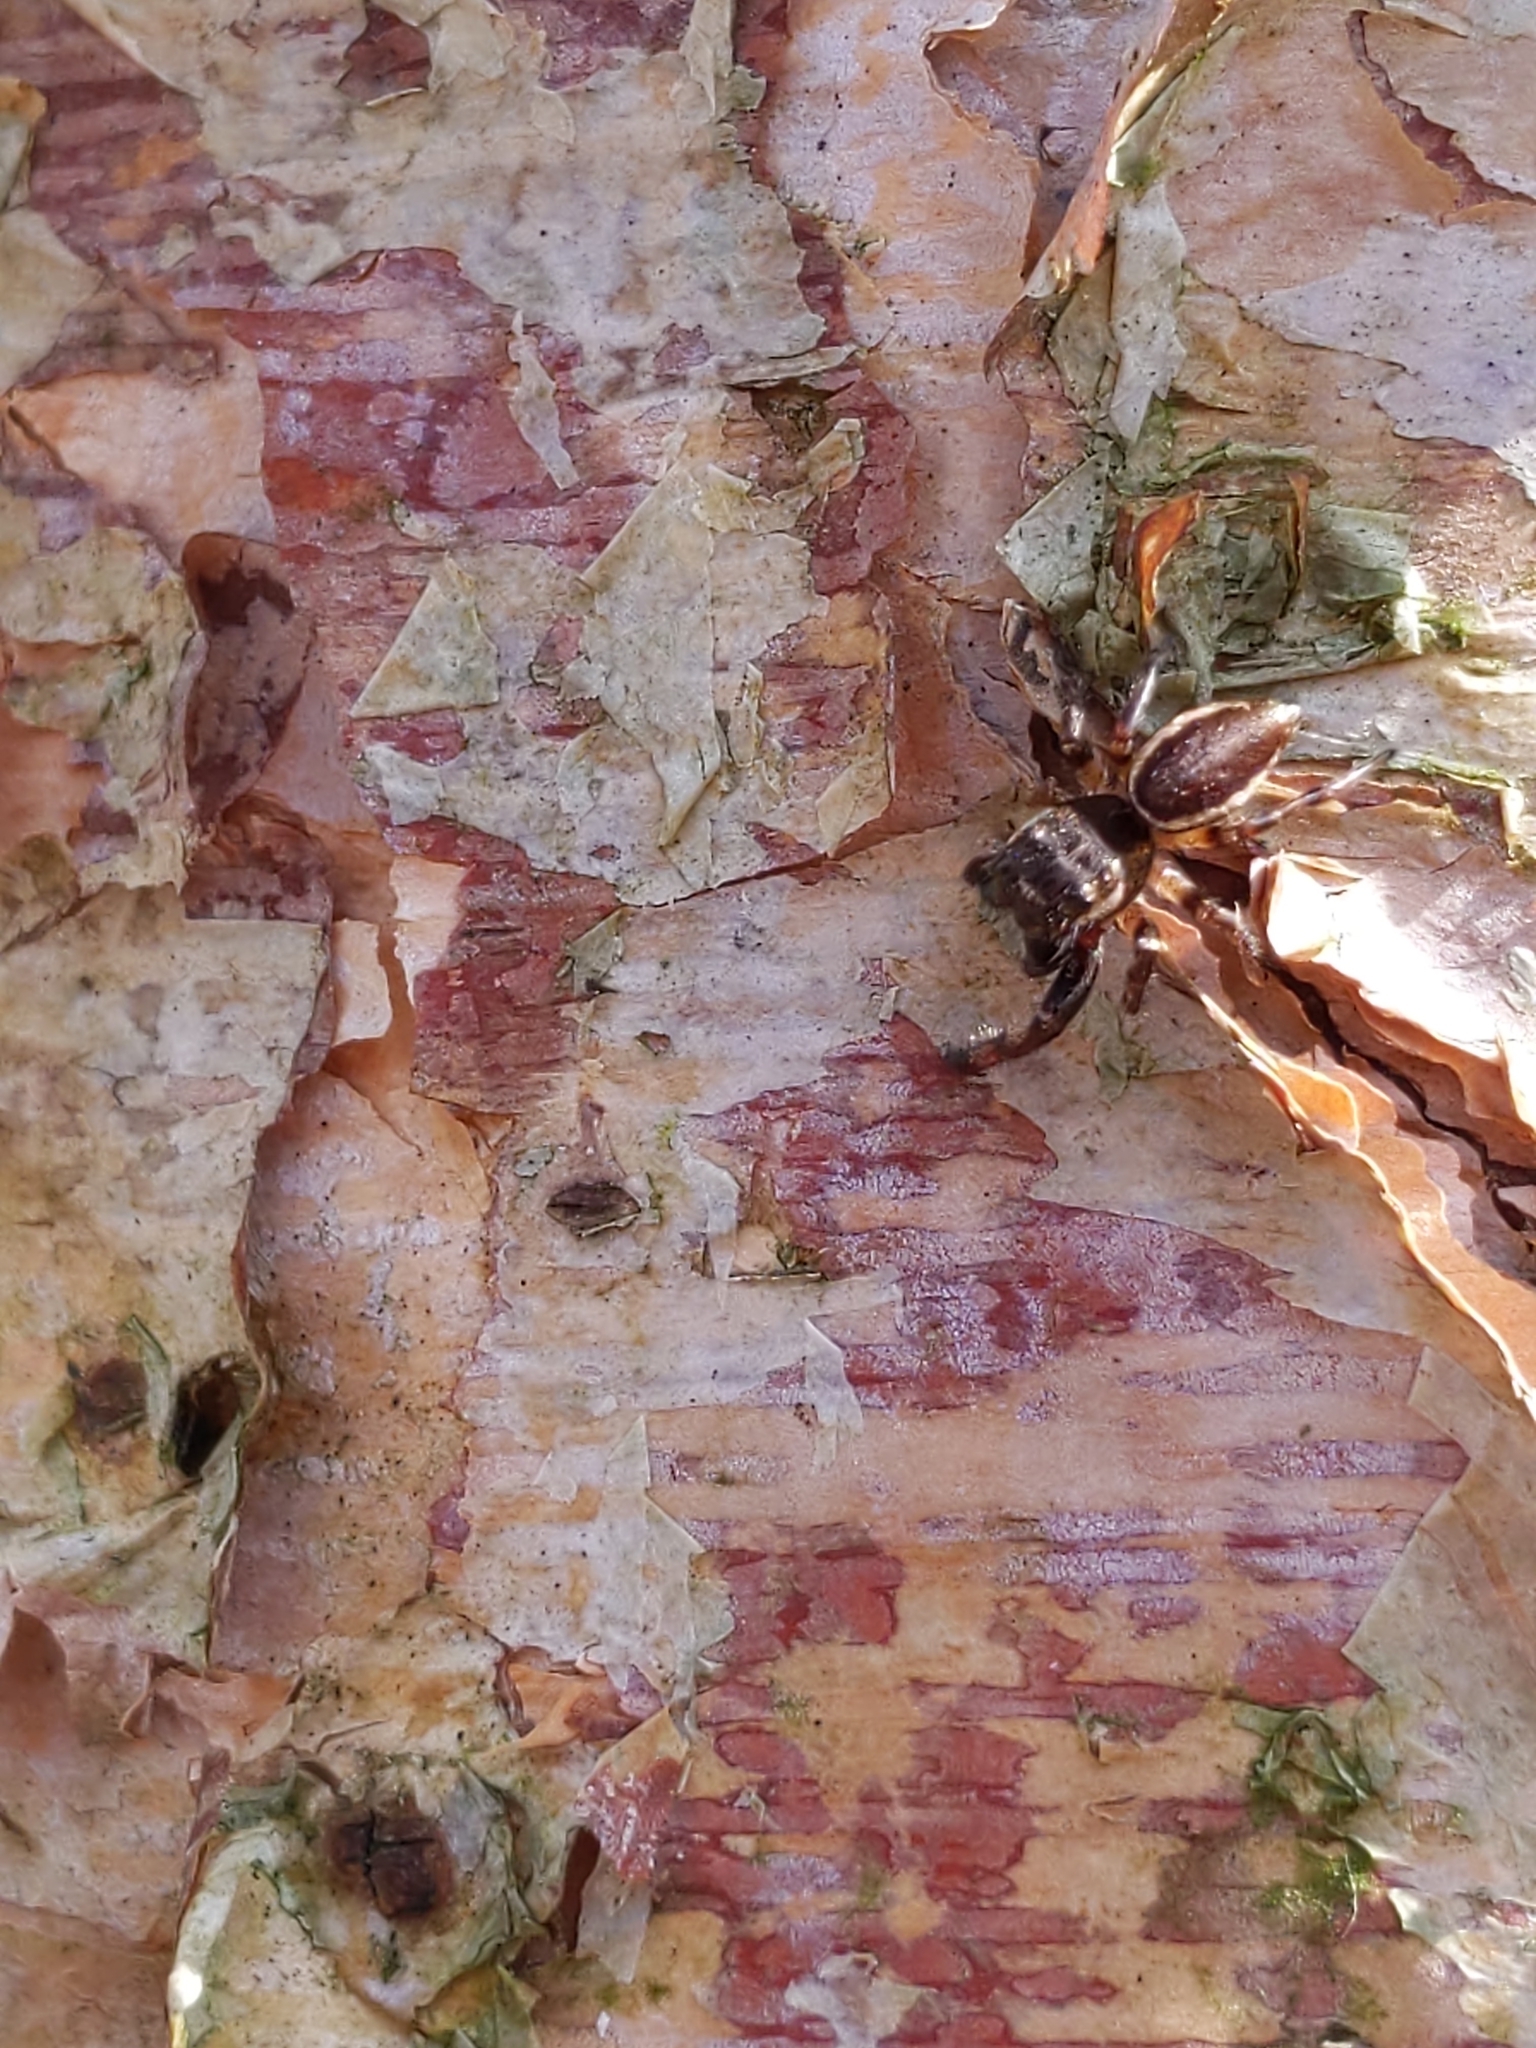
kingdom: Animalia
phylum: Arthropoda
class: Arachnida
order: Araneae
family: Salticidae
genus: Eris
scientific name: Eris
